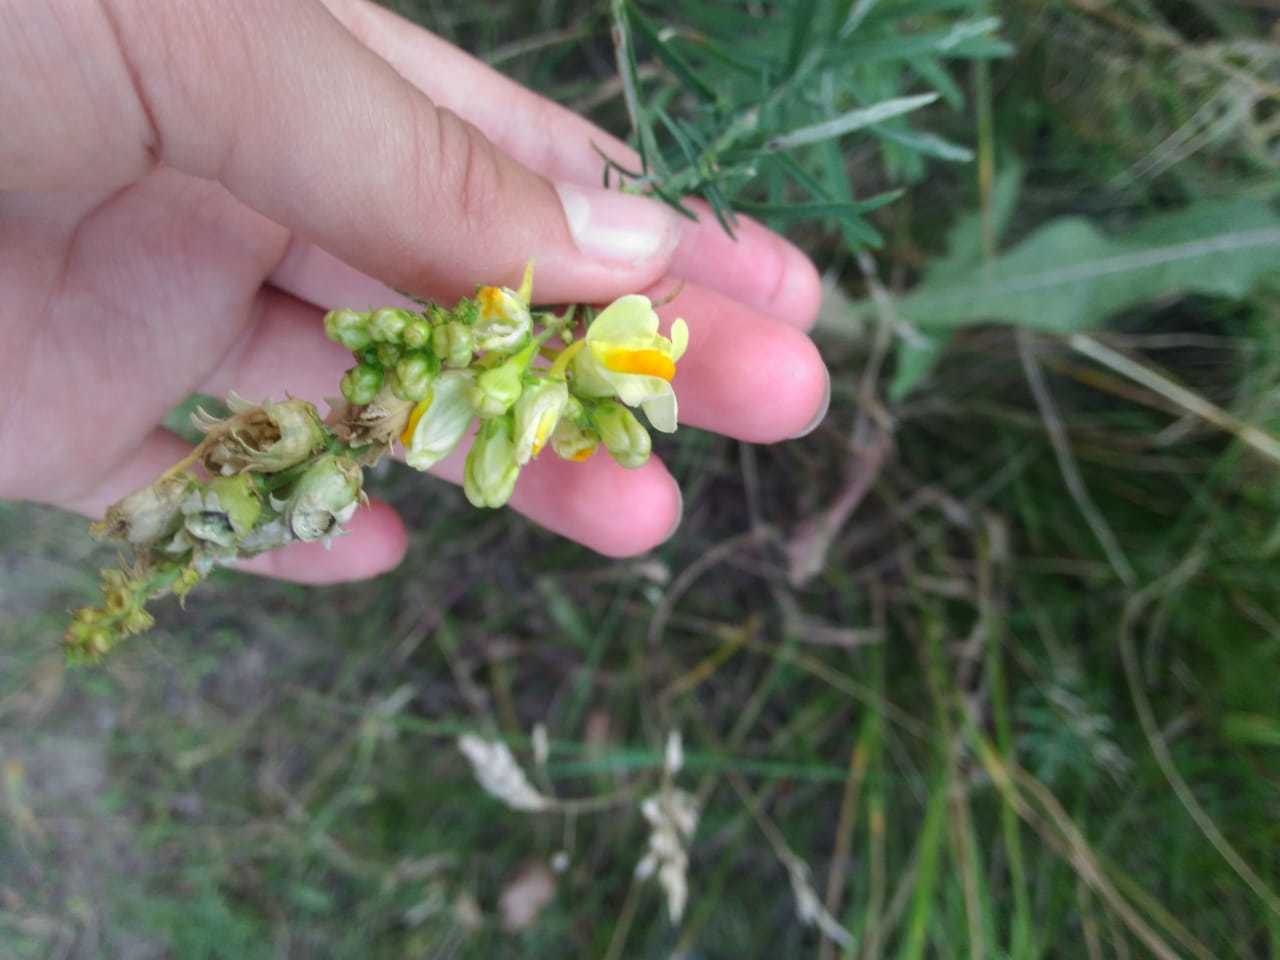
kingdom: Plantae
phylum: Tracheophyta
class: Magnoliopsida
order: Lamiales
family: Plantaginaceae
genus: Linaria
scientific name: Linaria vulgaris
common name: Butter and eggs
